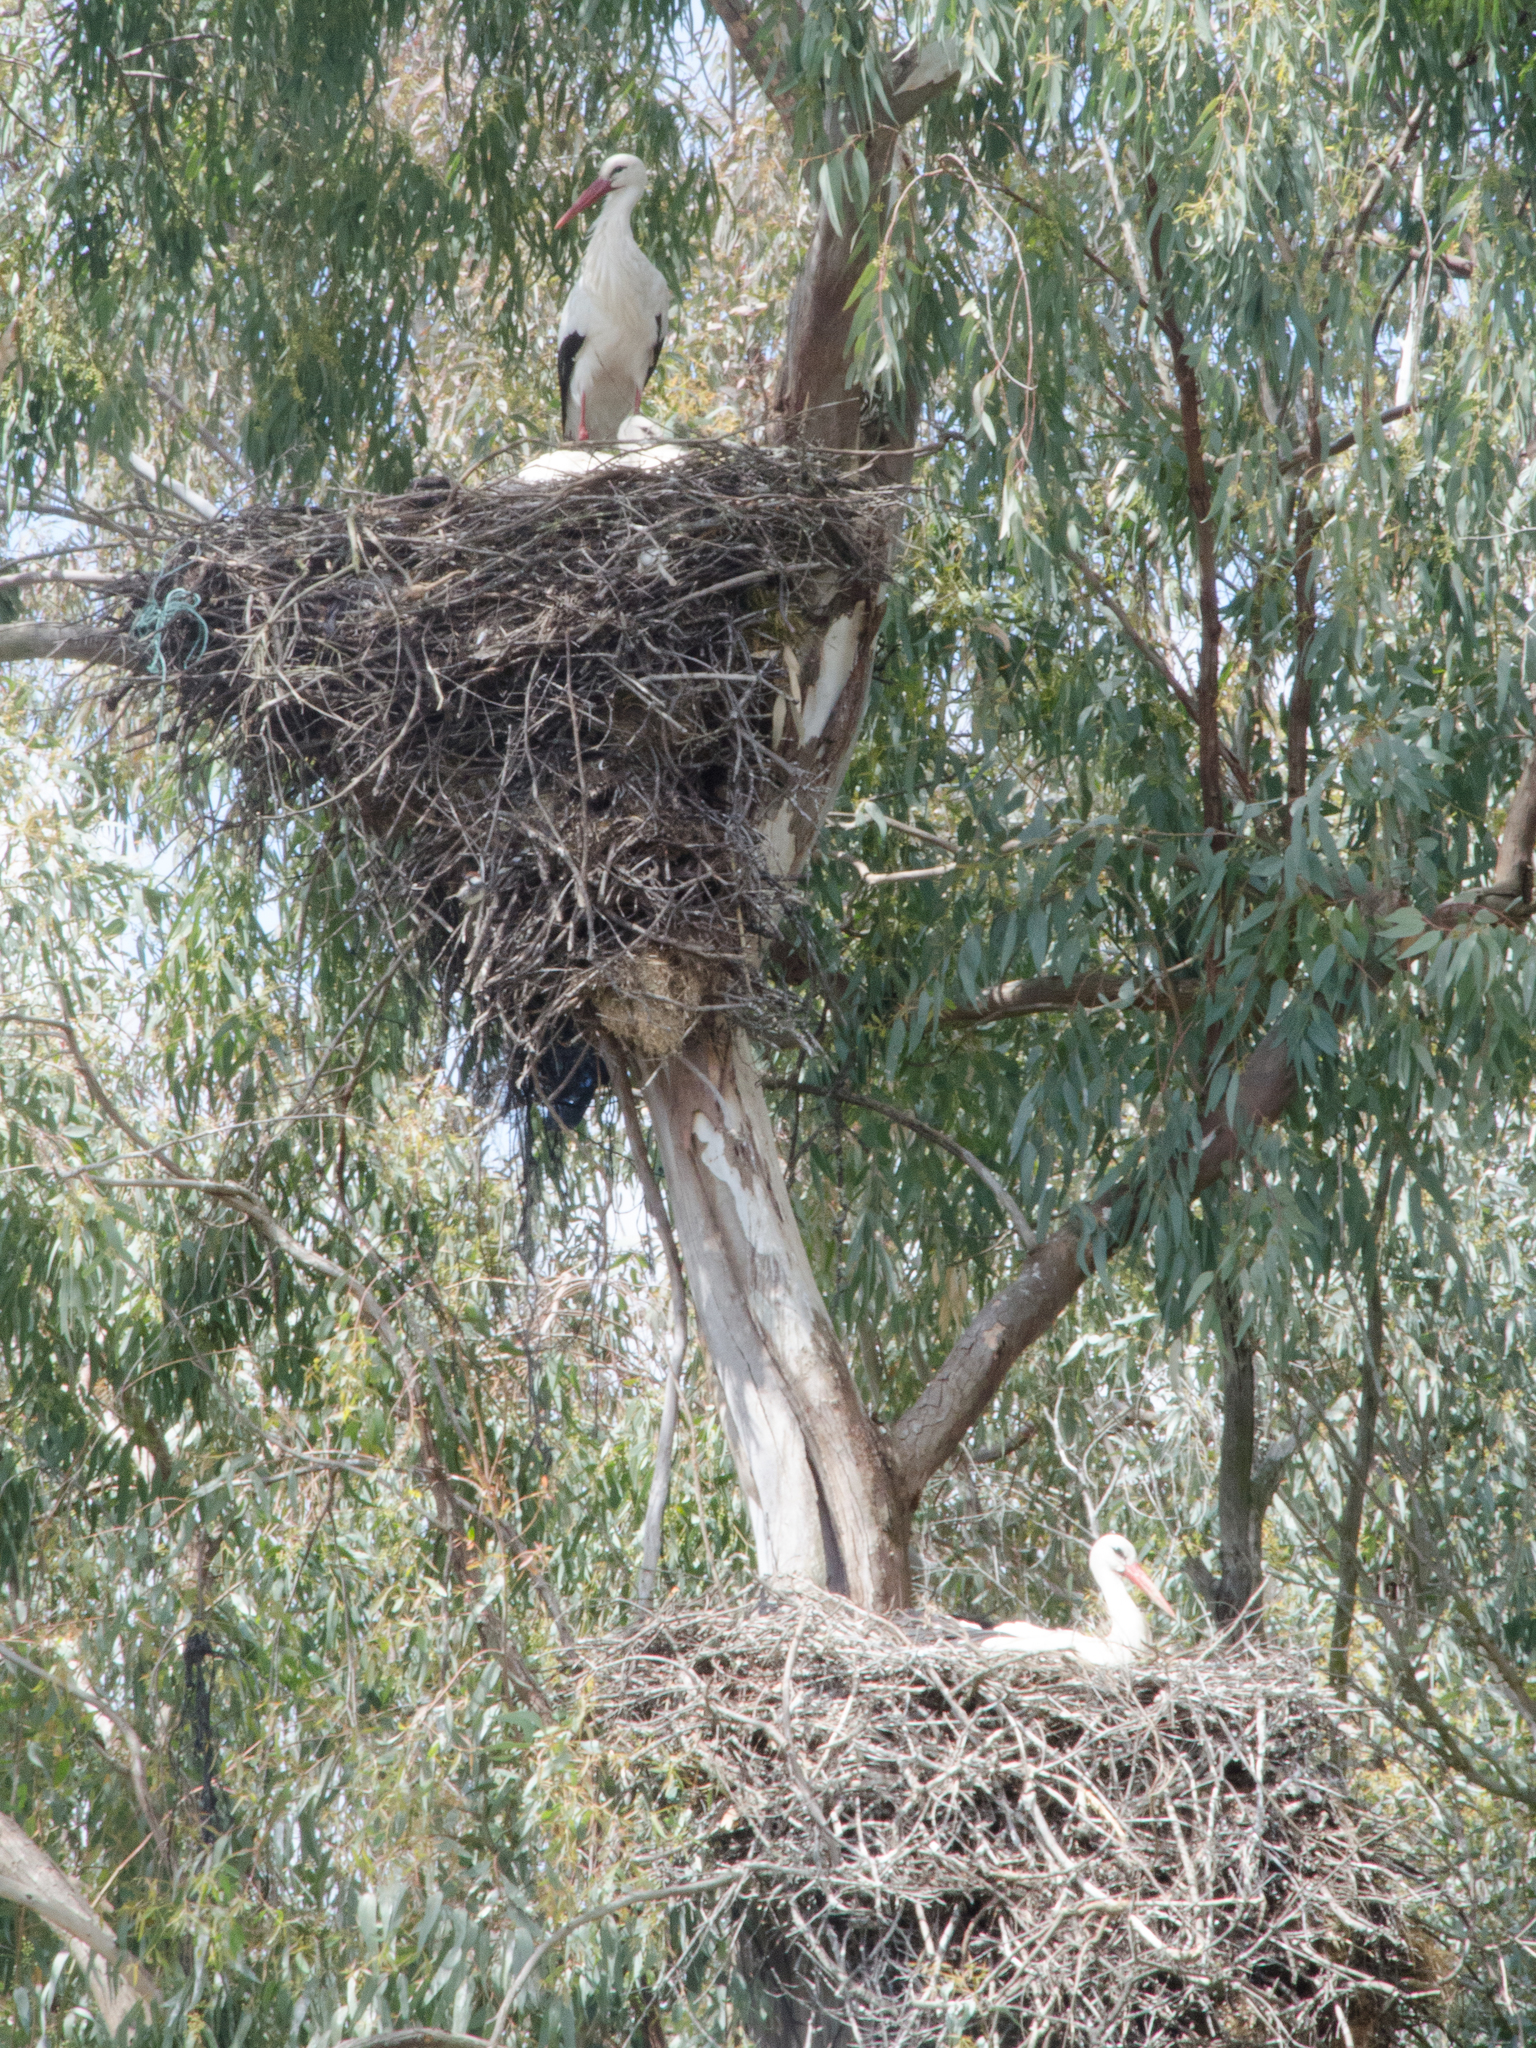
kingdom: Animalia
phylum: Chordata
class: Aves
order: Ciconiiformes
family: Ciconiidae
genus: Ciconia
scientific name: Ciconia ciconia
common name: White stork
